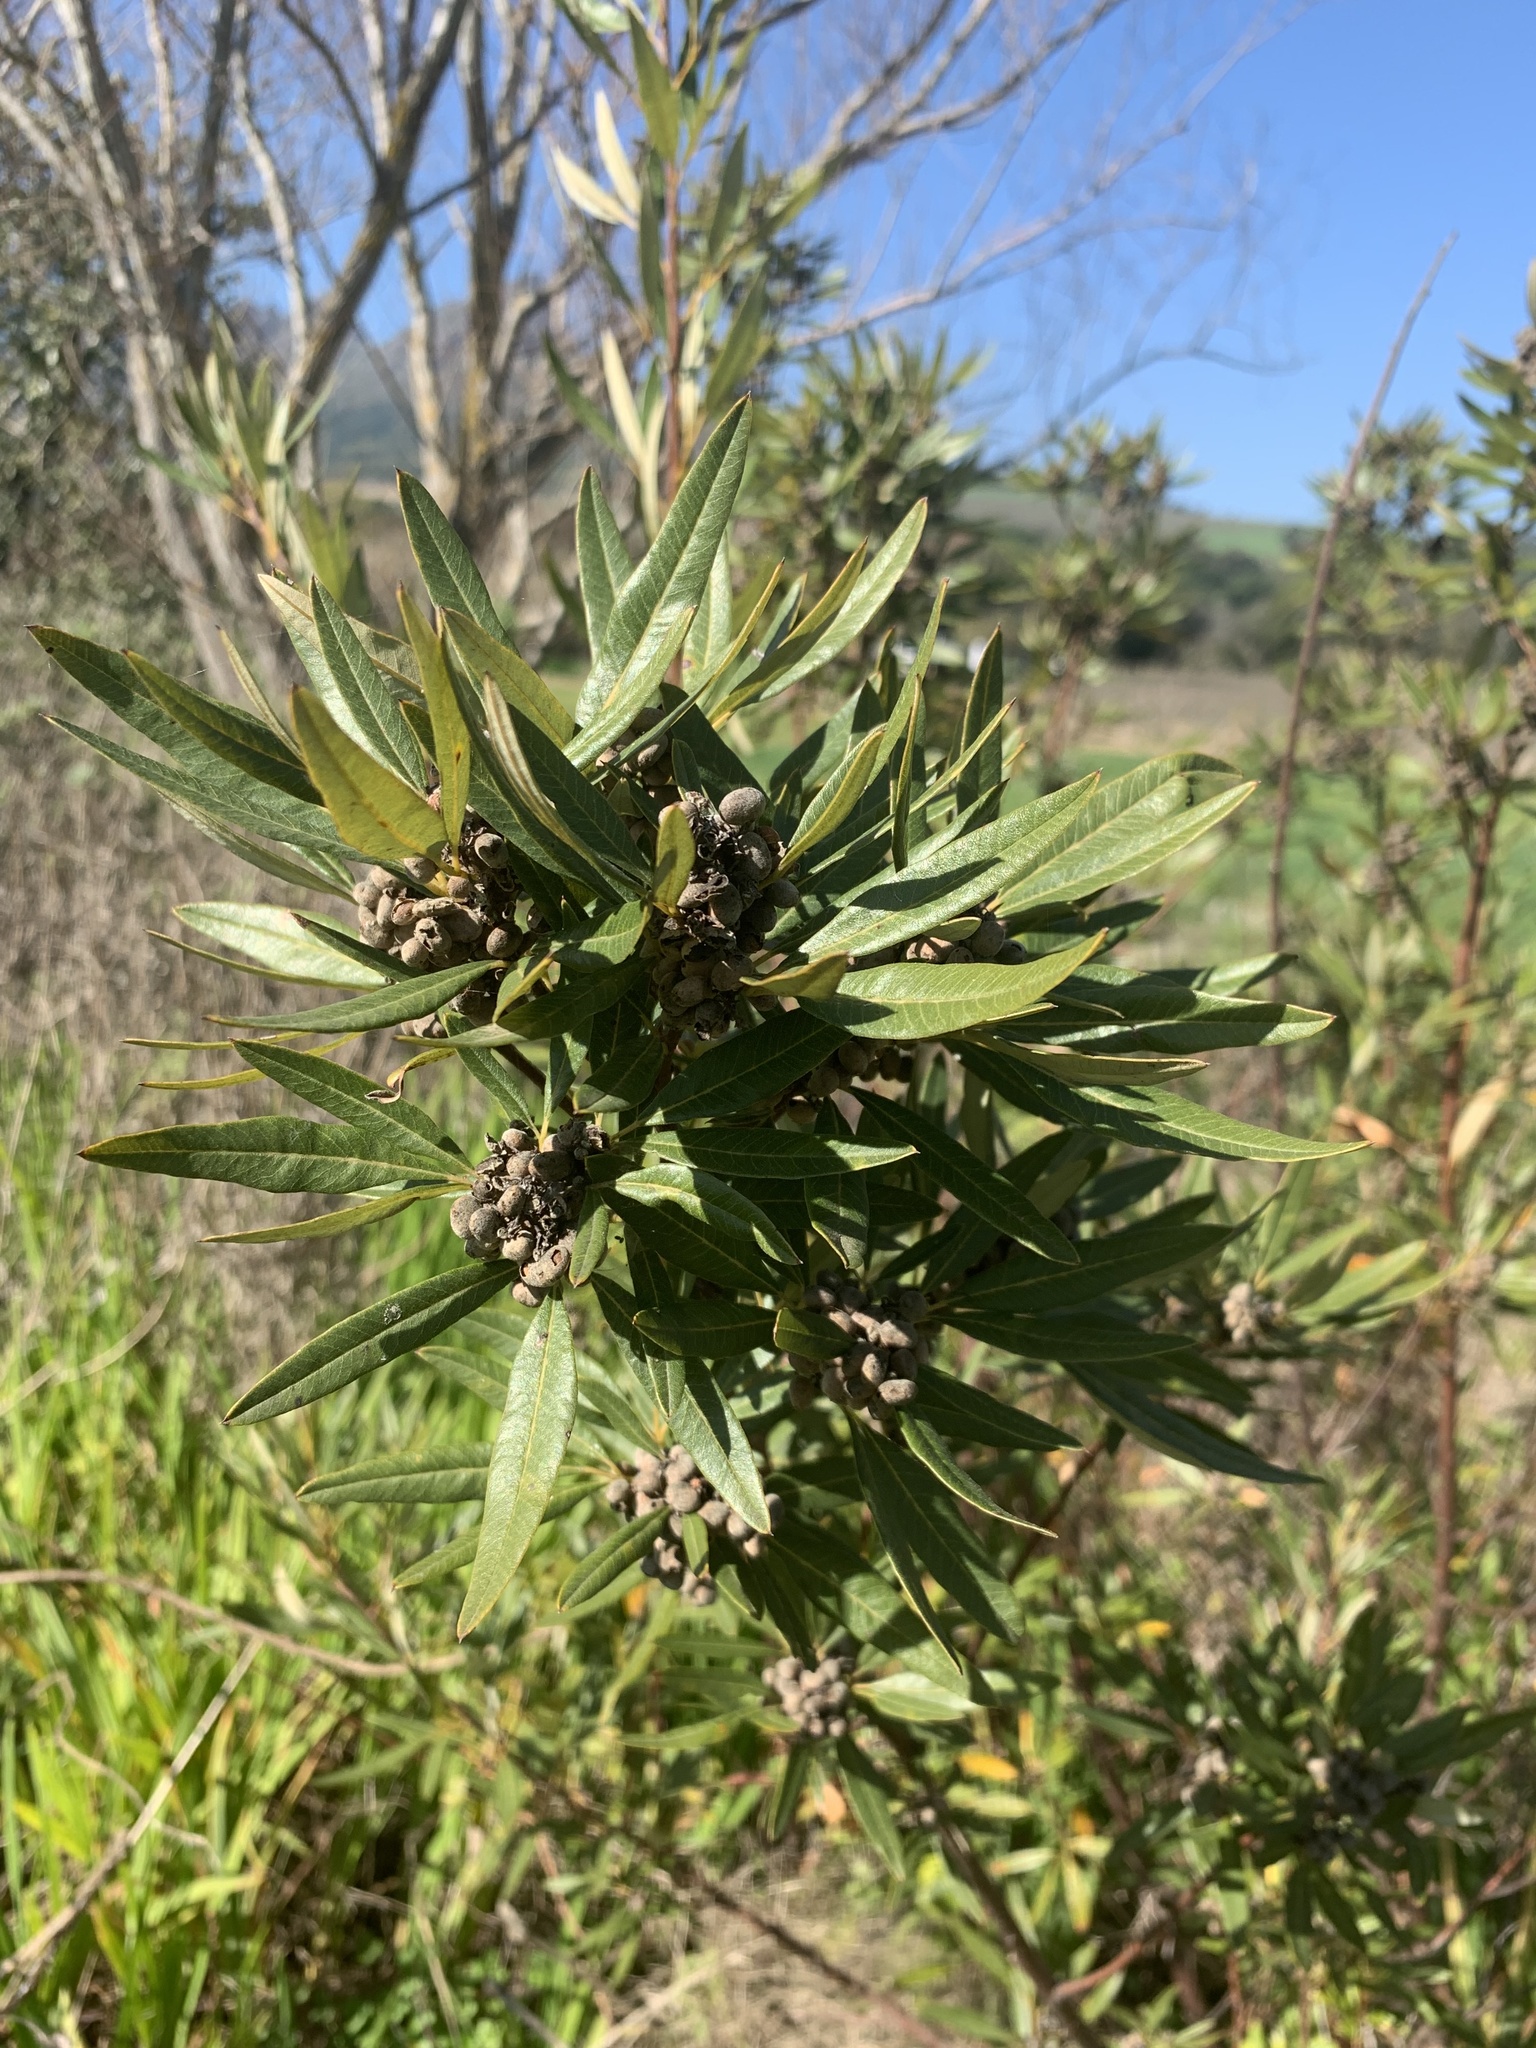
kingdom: Plantae
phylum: Tracheophyta
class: Magnoliopsida
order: Sapindales
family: Anacardiaceae
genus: Searsia
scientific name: Searsia angustifolia
